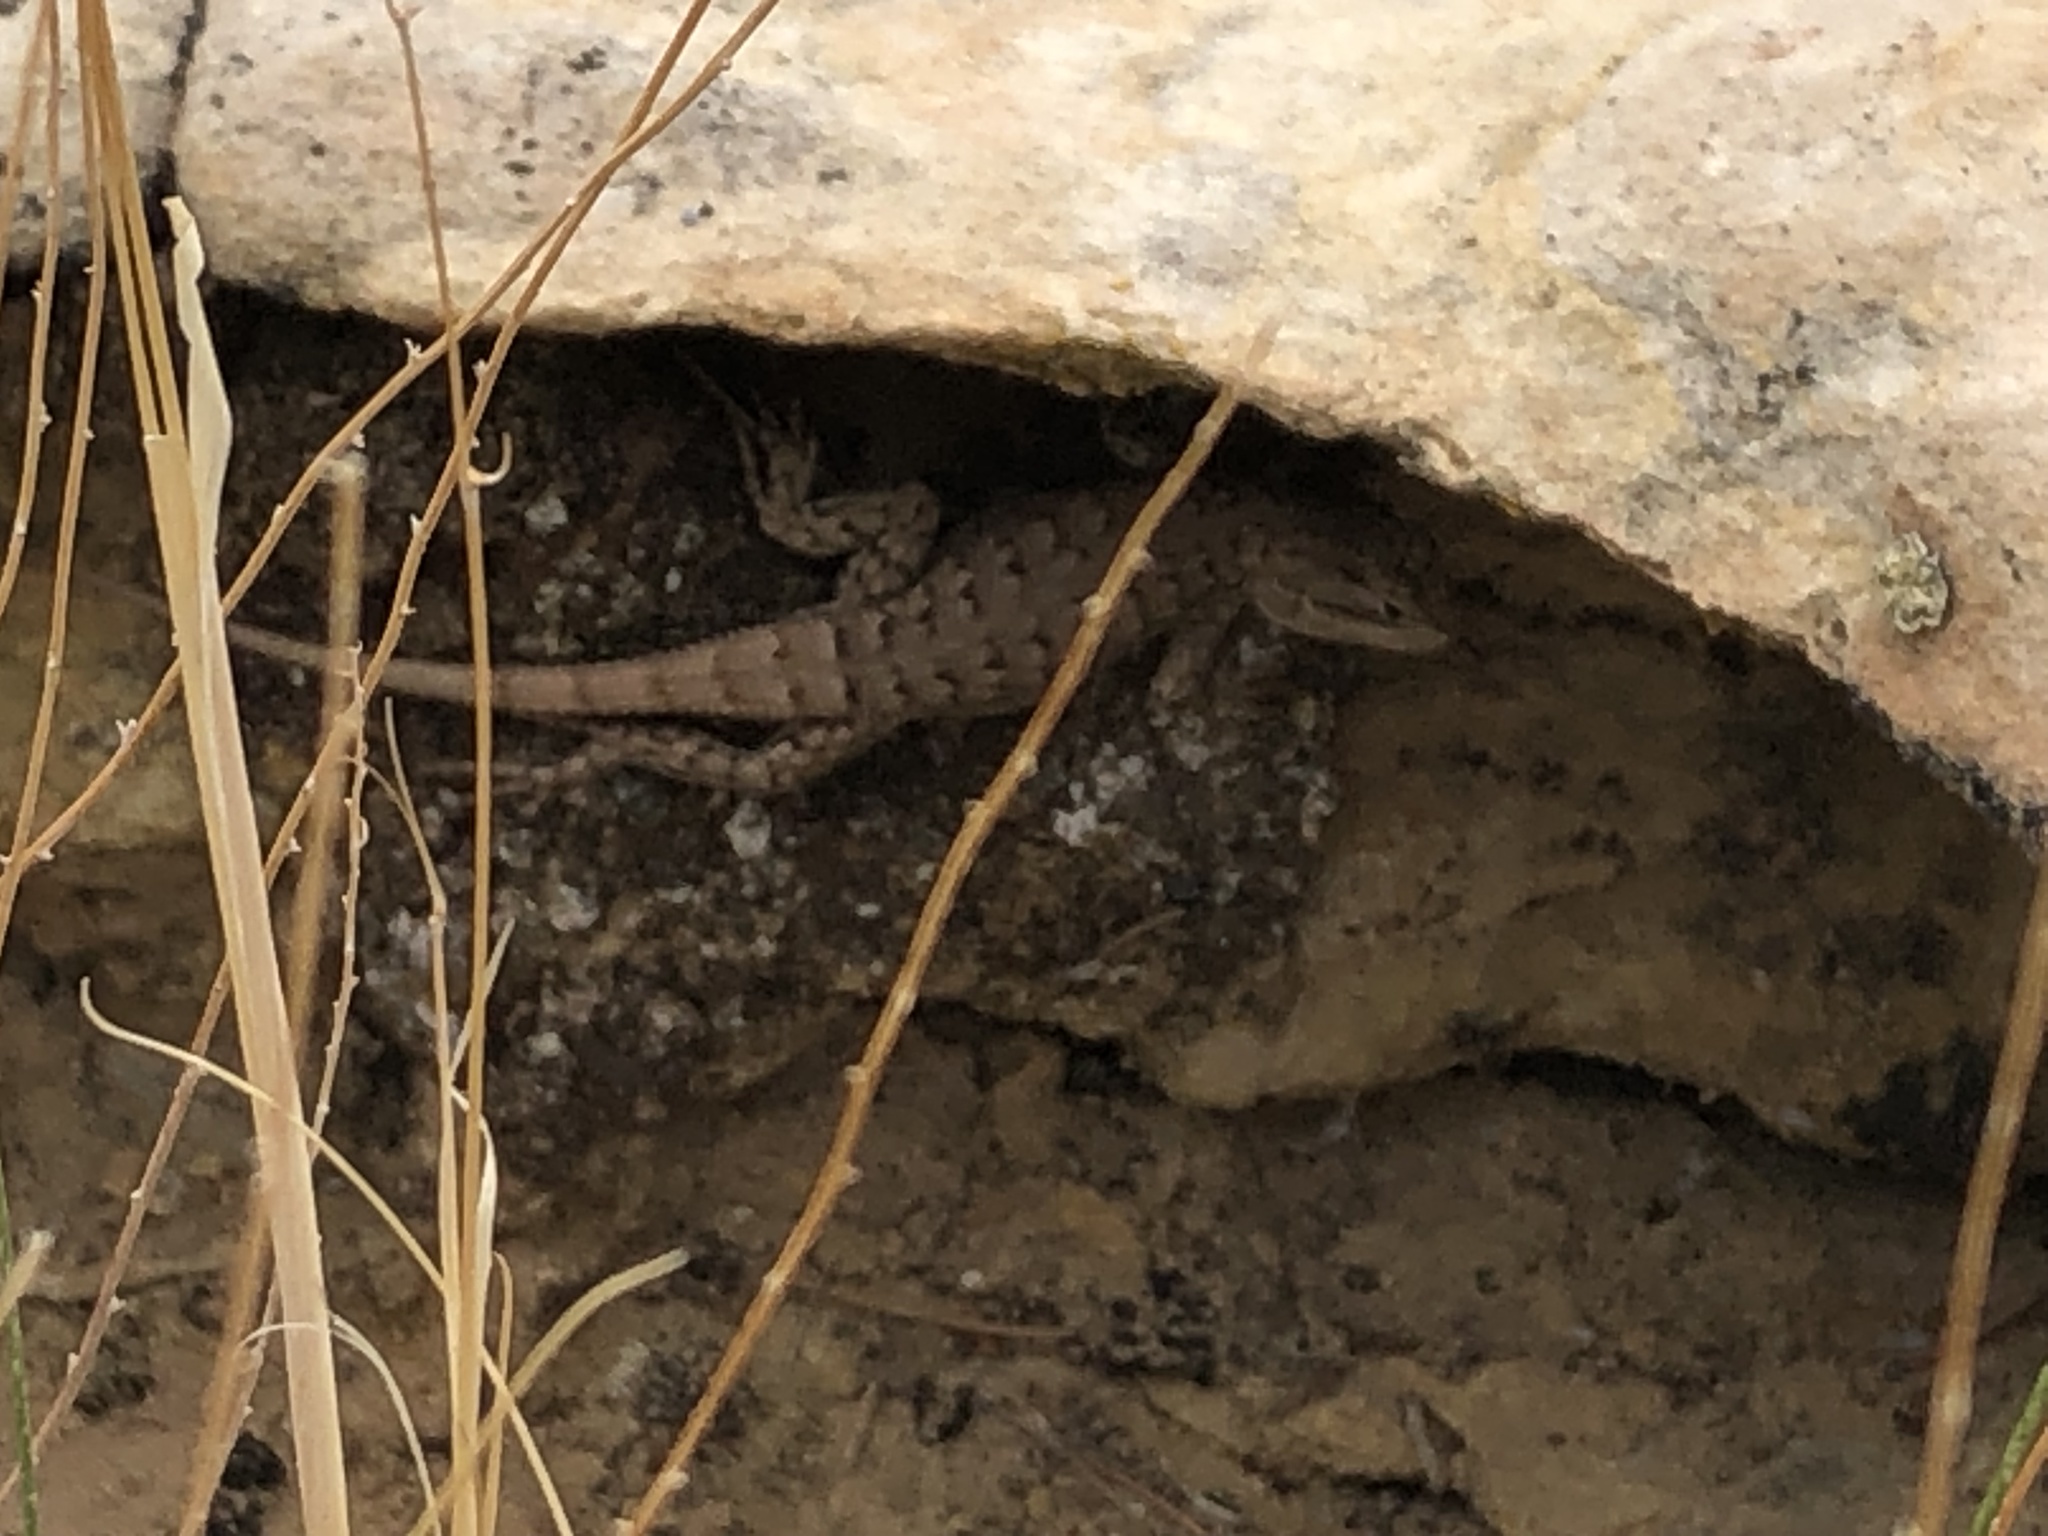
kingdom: Animalia
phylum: Chordata
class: Squamata
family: Phrynosomatidae
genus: Sceloporus
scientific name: Sceloporus tristichus
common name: Plateau fence lizard
